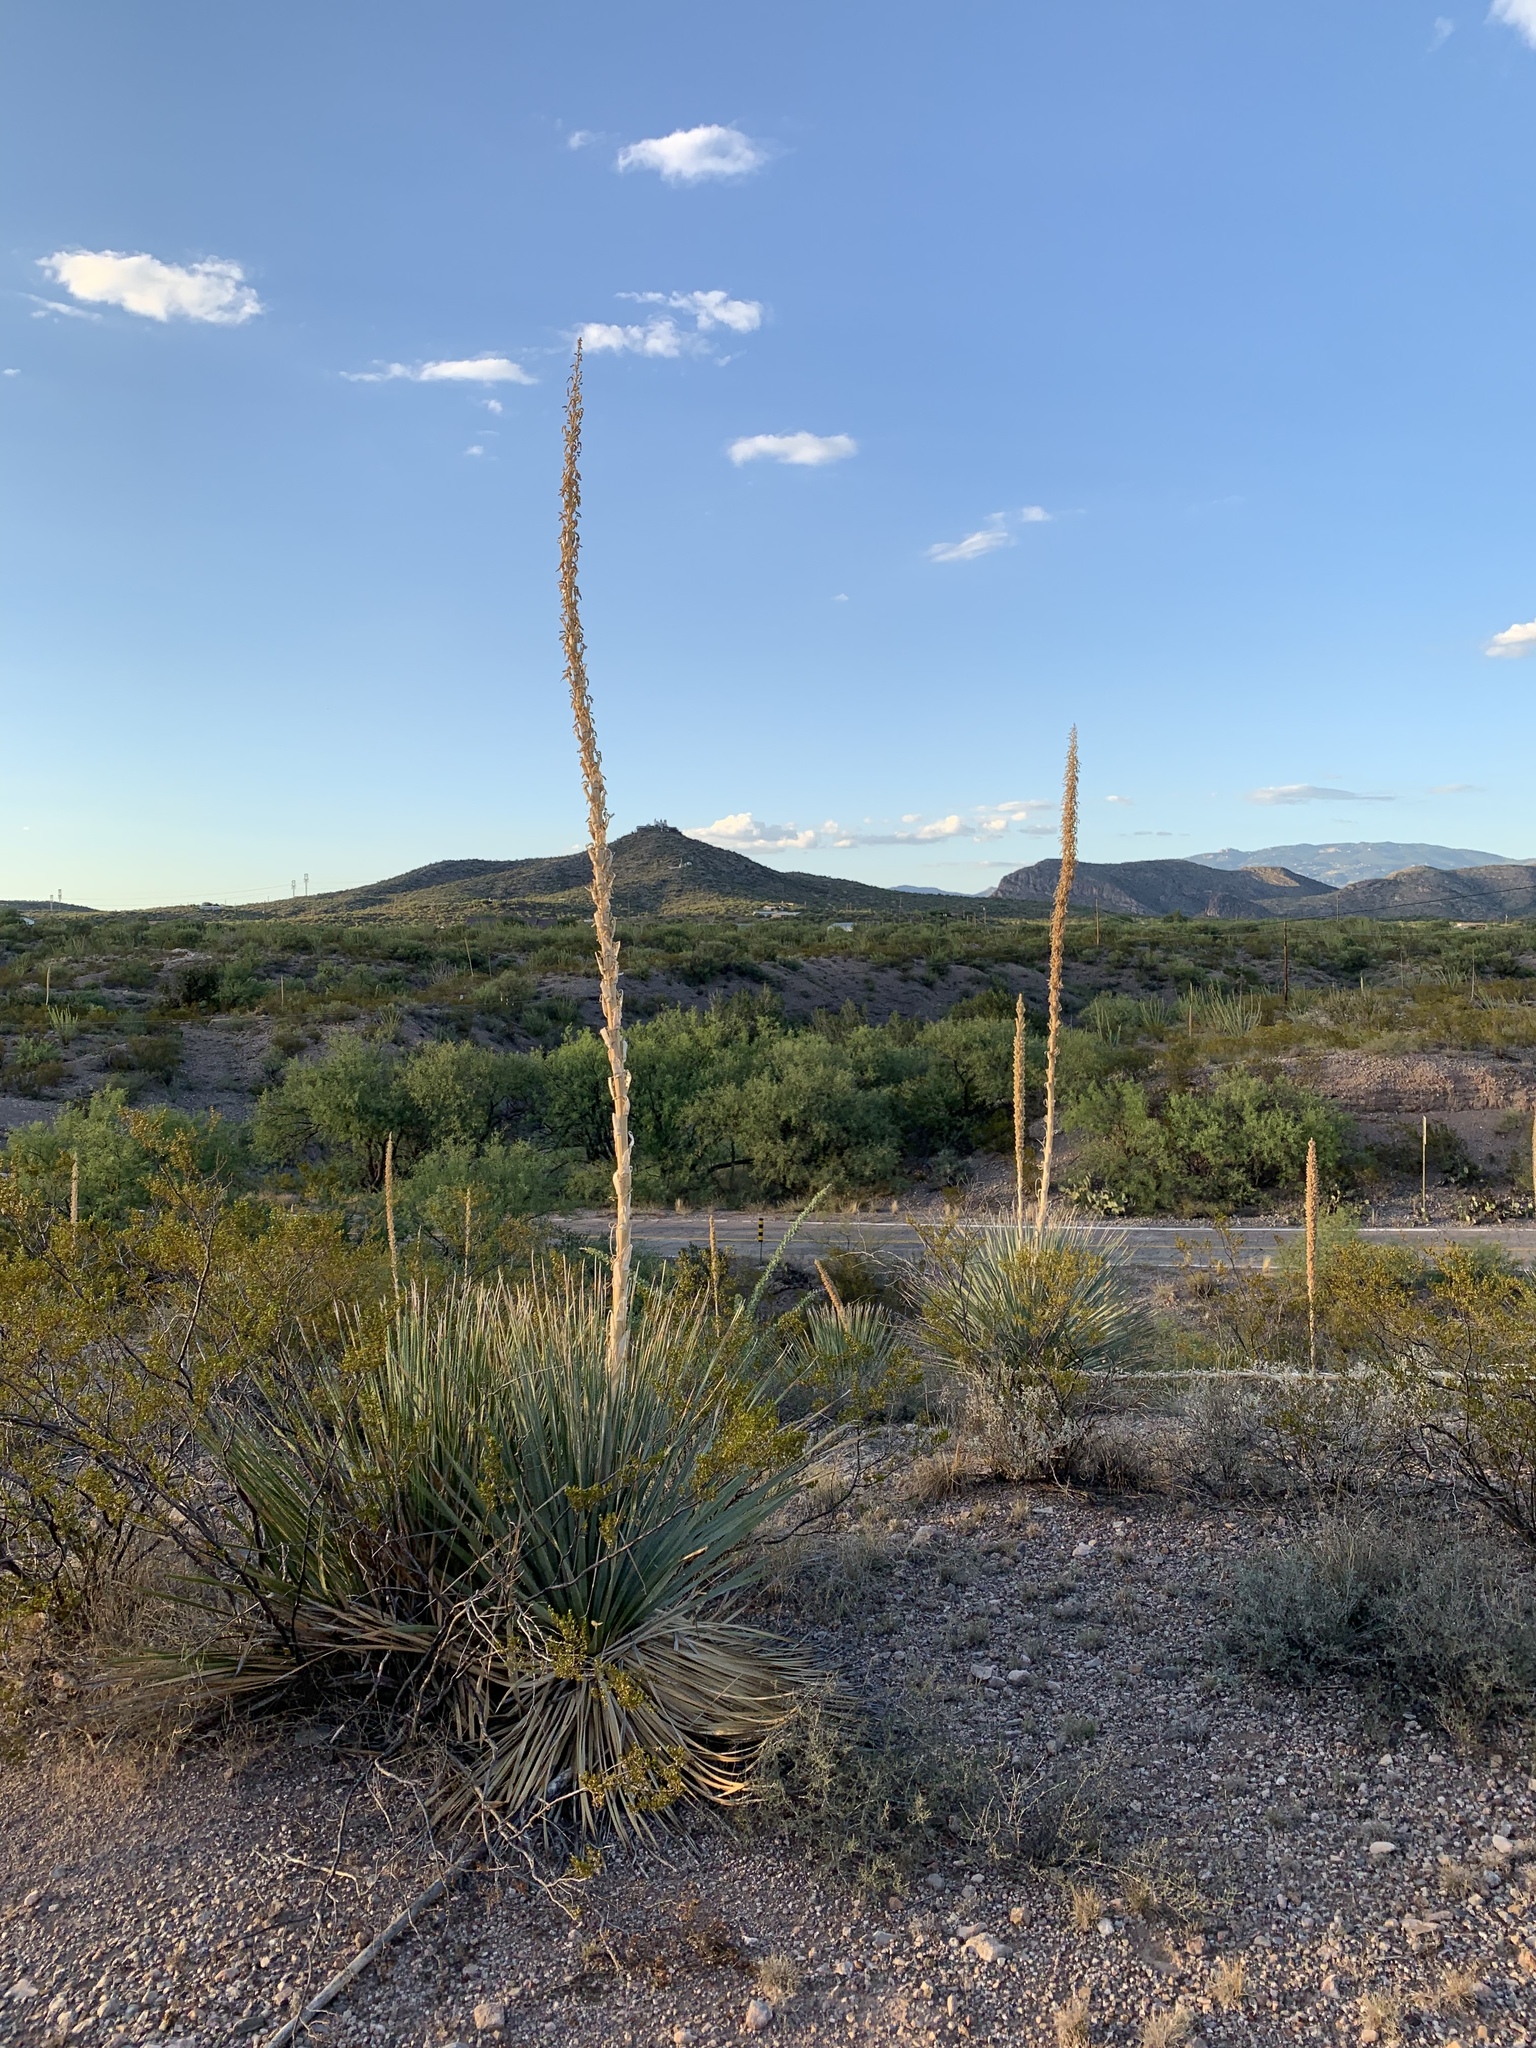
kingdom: Plantae
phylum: Tracheophyta
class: Liliopsida
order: Asparagales
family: Asparagaceae
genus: Dasylirion
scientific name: Dasylirion wheeleri
